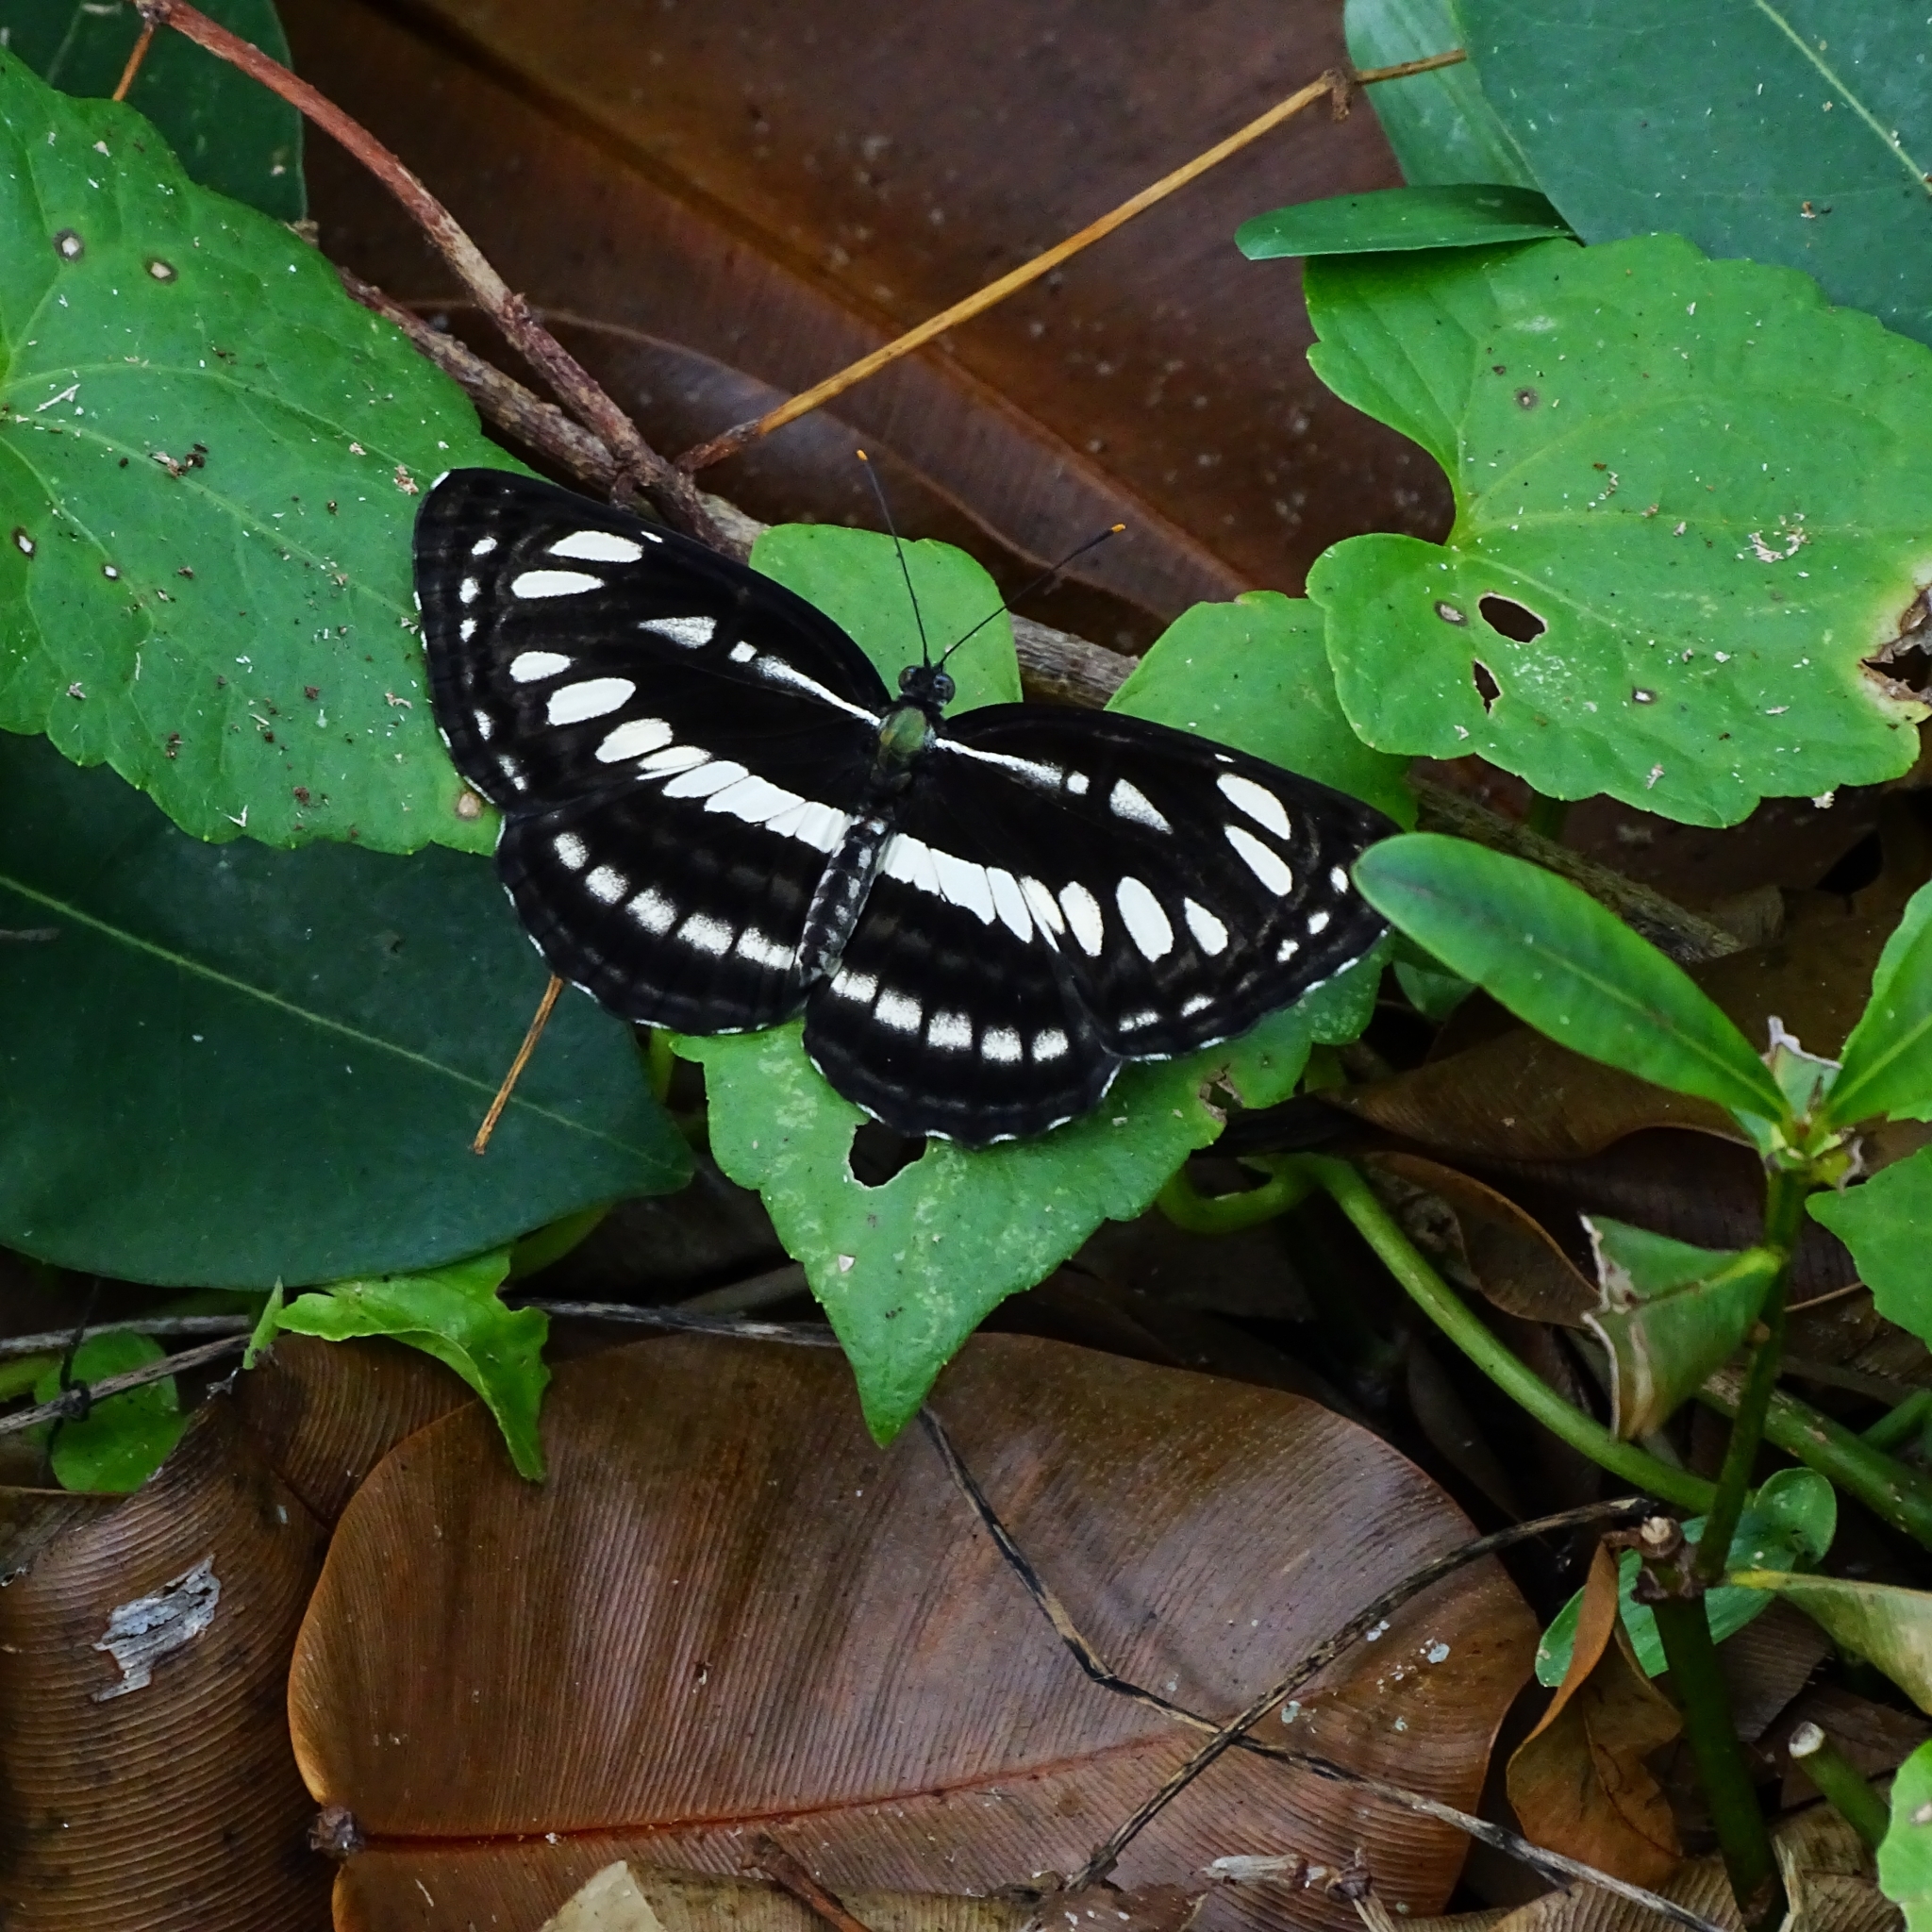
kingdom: Animalia
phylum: Arthropoda
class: Insecta
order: Lepidoptera
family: Nymphalidae
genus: Neptis
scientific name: Neptis hylas
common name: Common sailer
